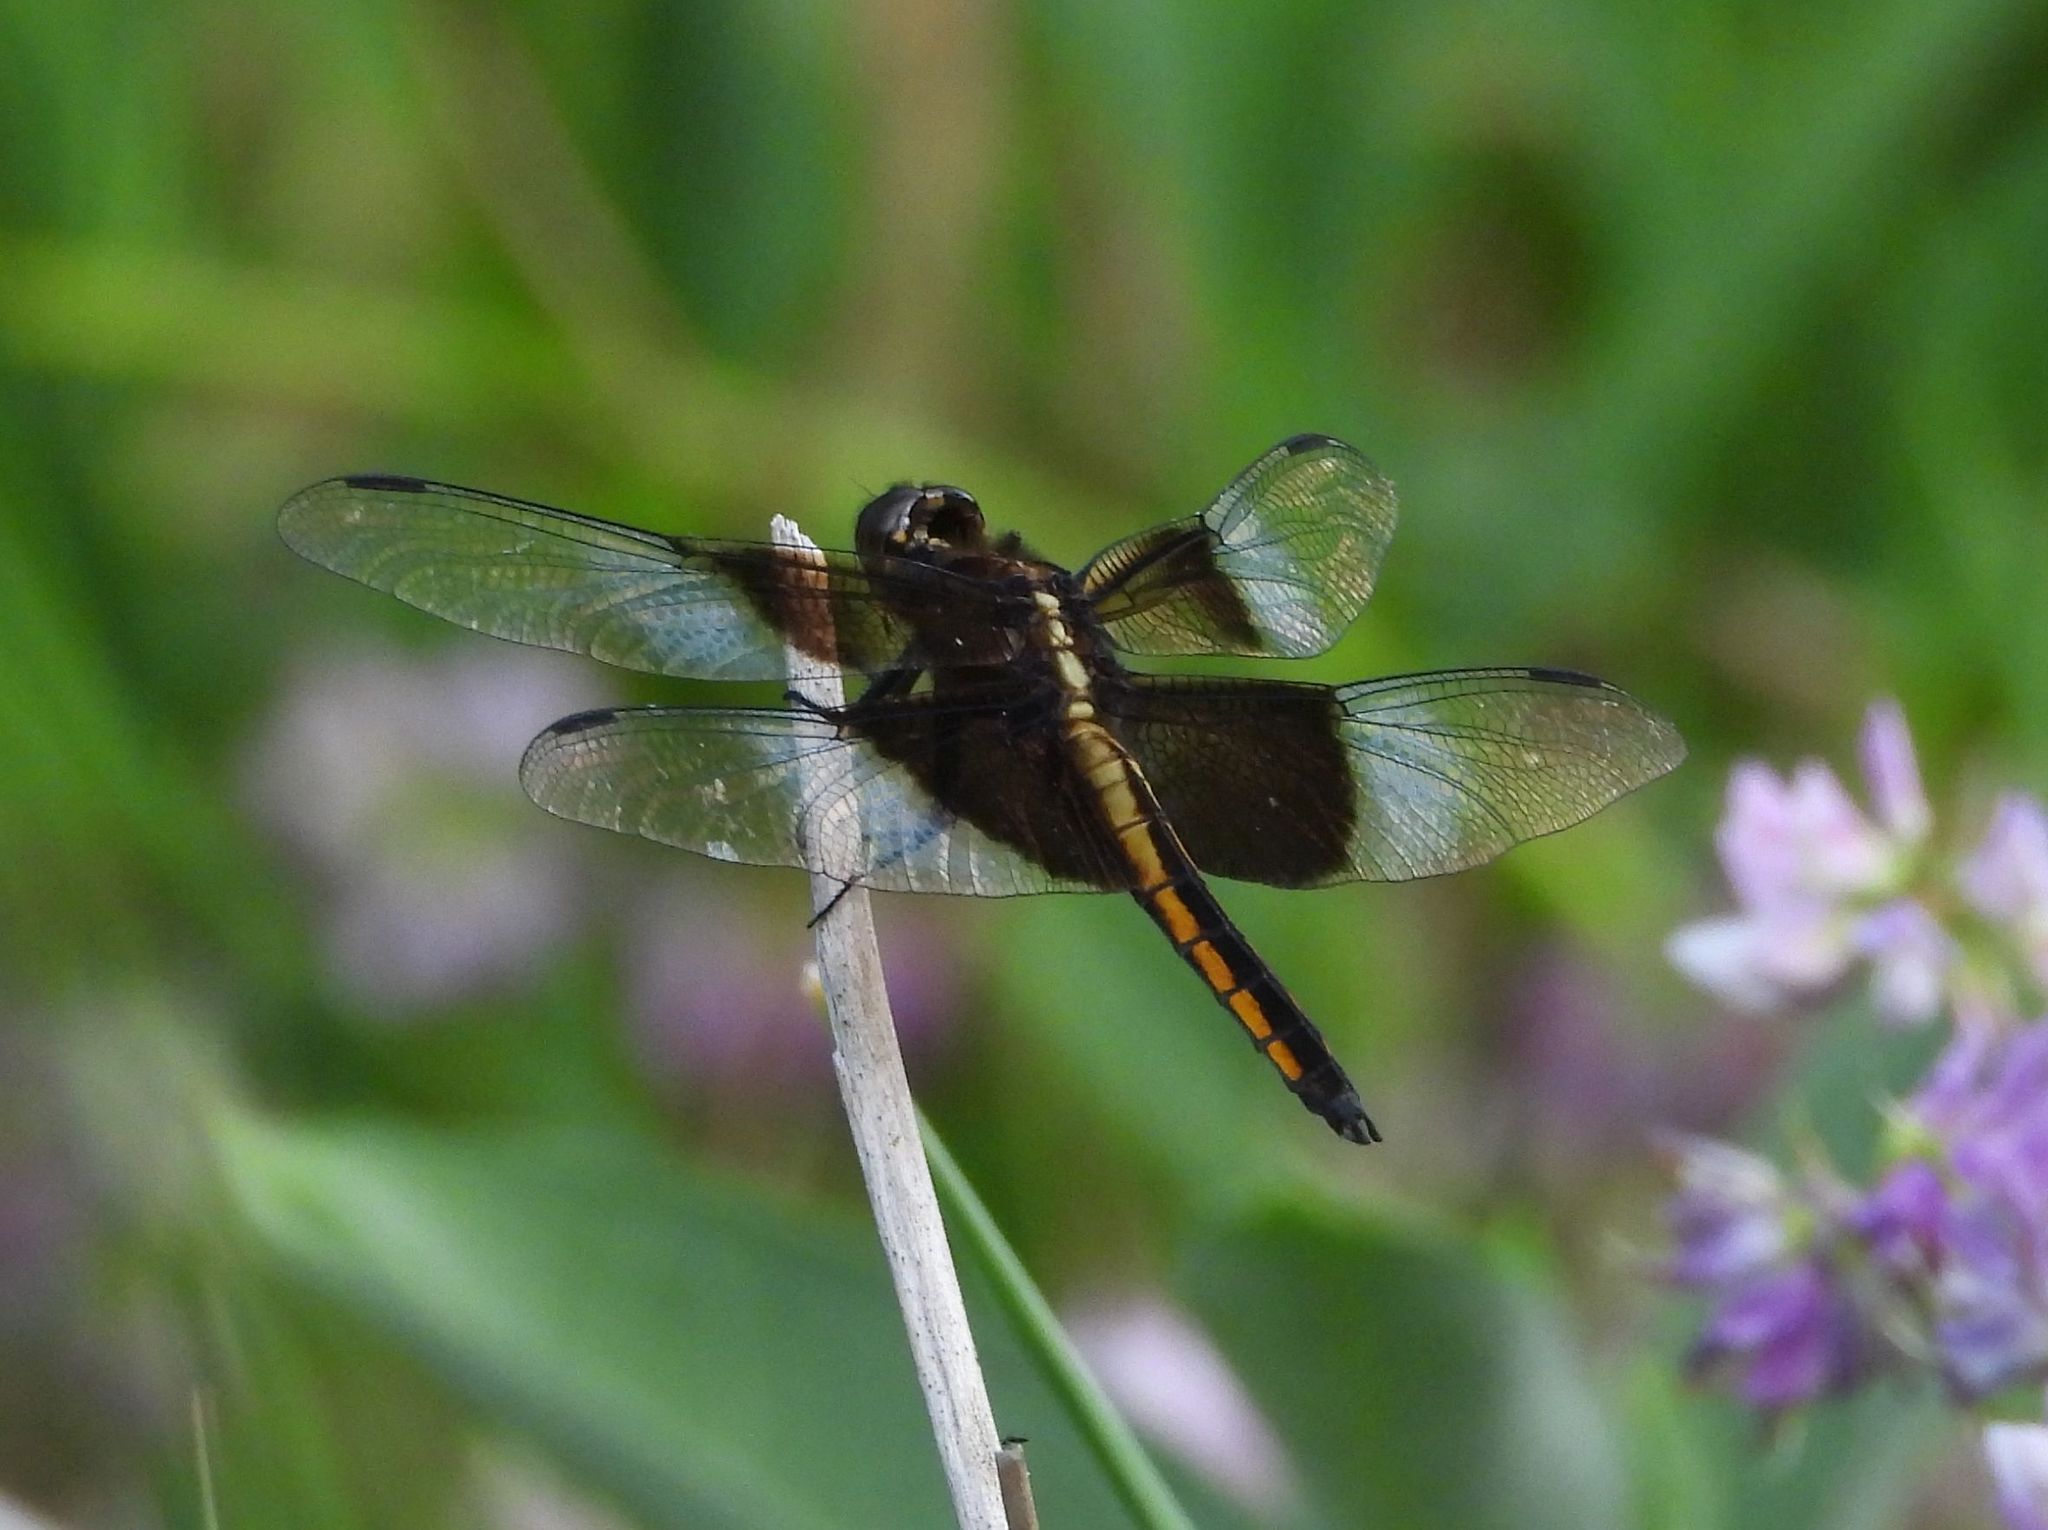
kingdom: Animalia
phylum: Arthropoda
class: Insecta
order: Odonata
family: Libellulidae
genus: Libellula
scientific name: Libellula luctuosa
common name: Widow skimmer
